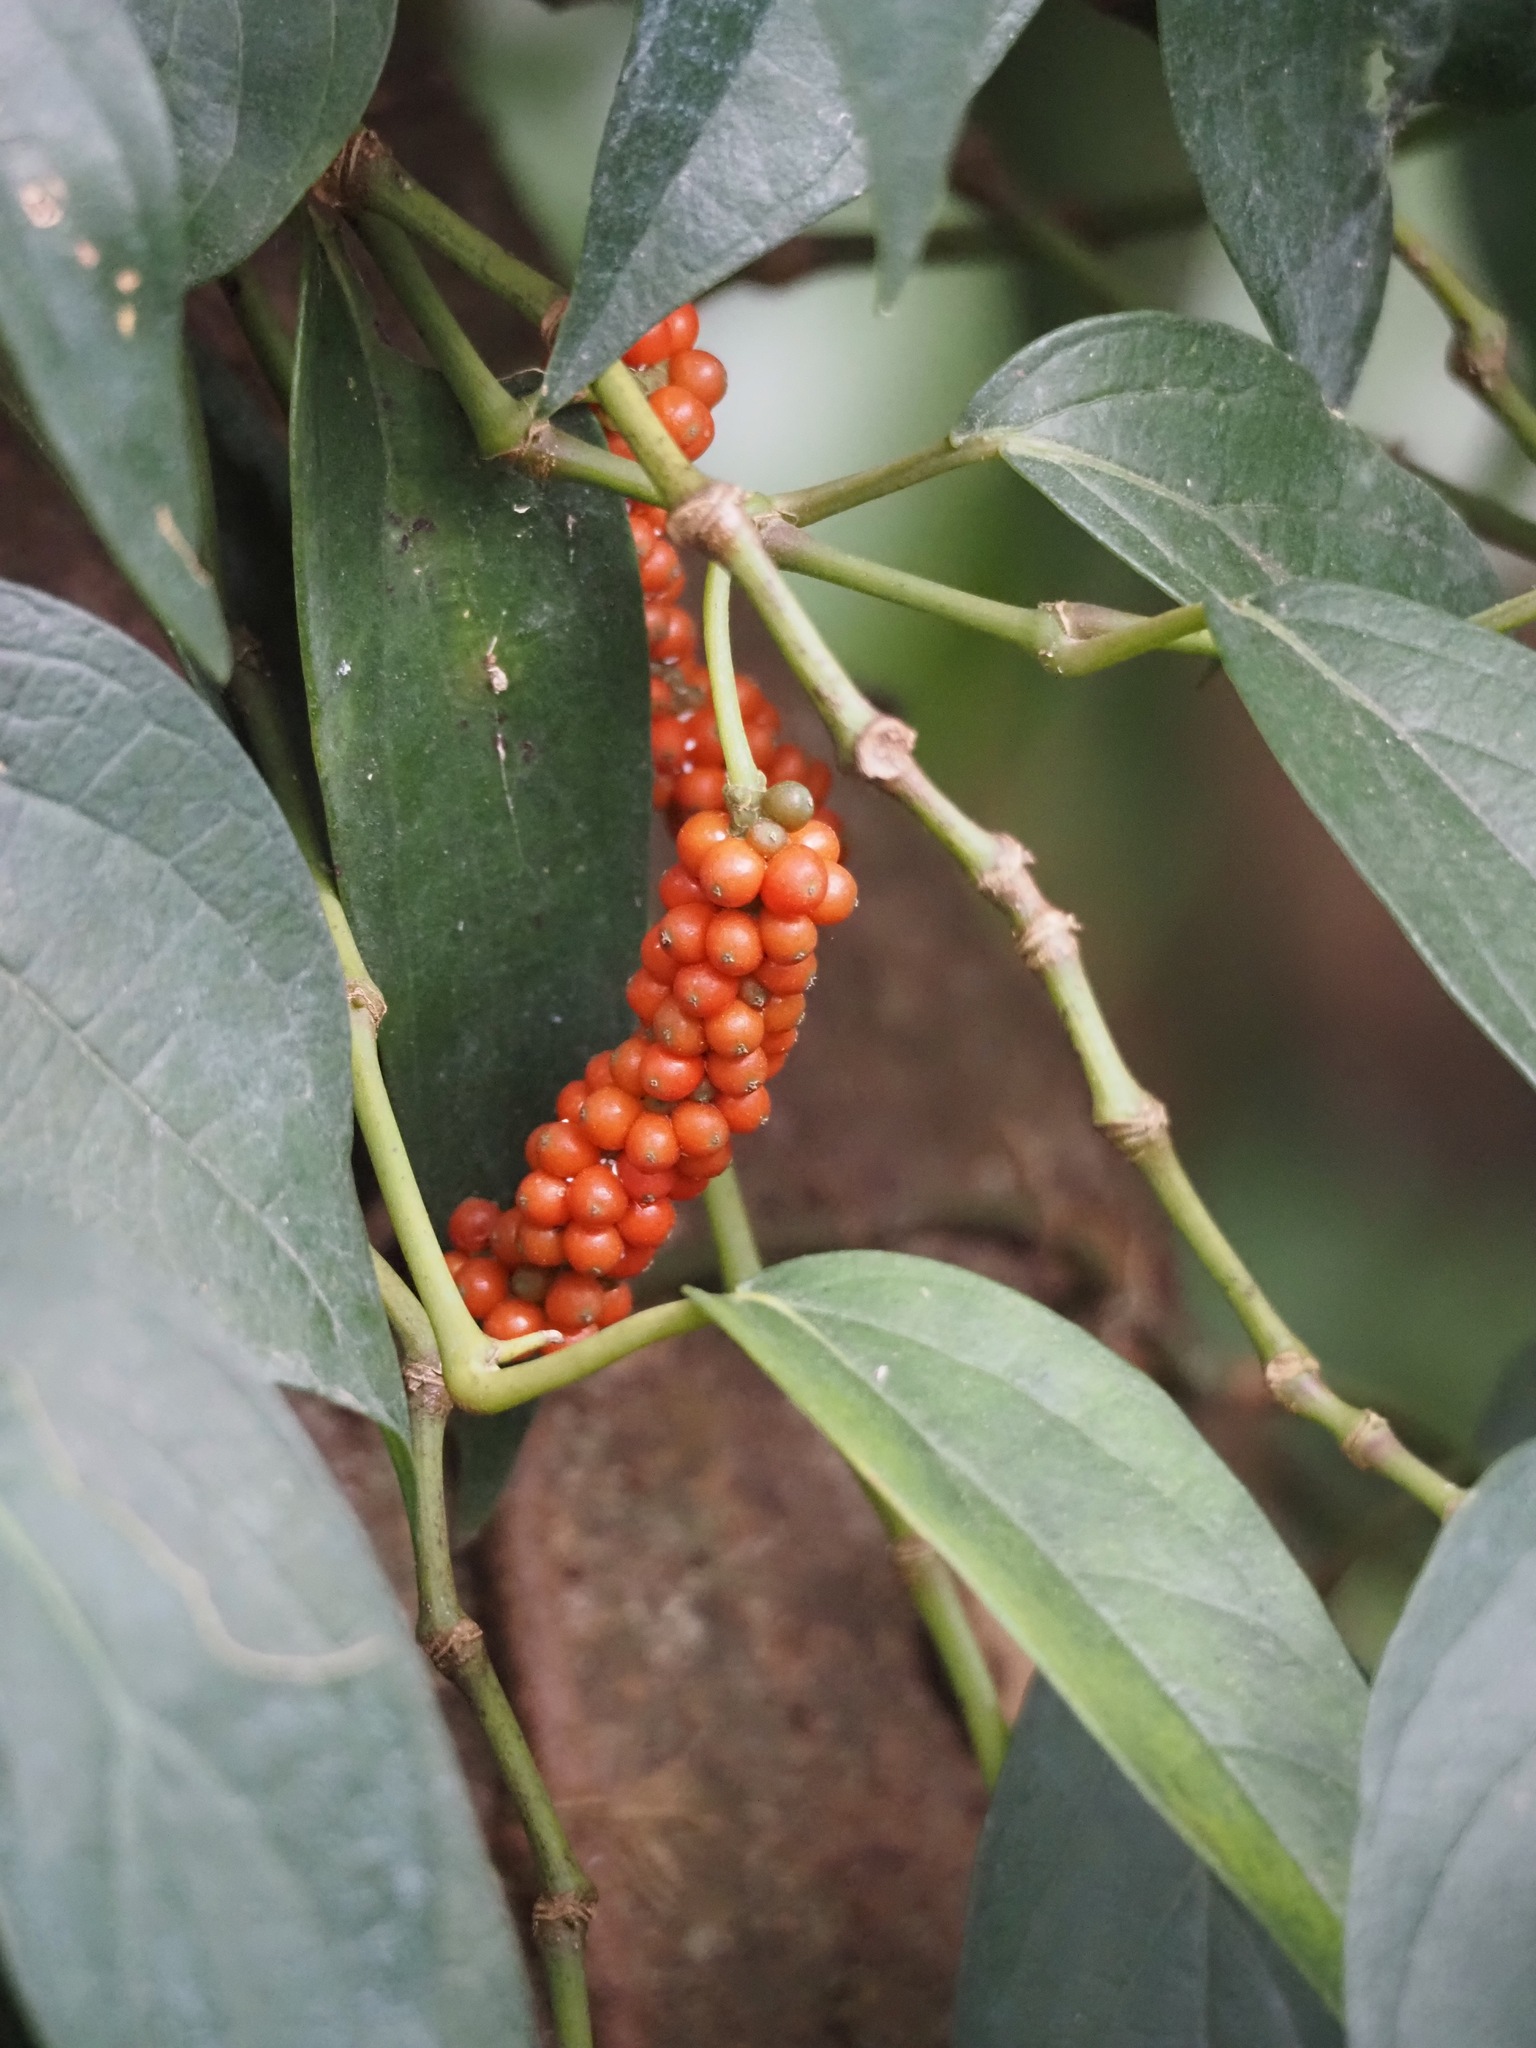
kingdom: Plantae
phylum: Tracheophyta
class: Magnoliopsida
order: Piperales
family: Piperaceae
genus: Piper
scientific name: Piper kadsura
